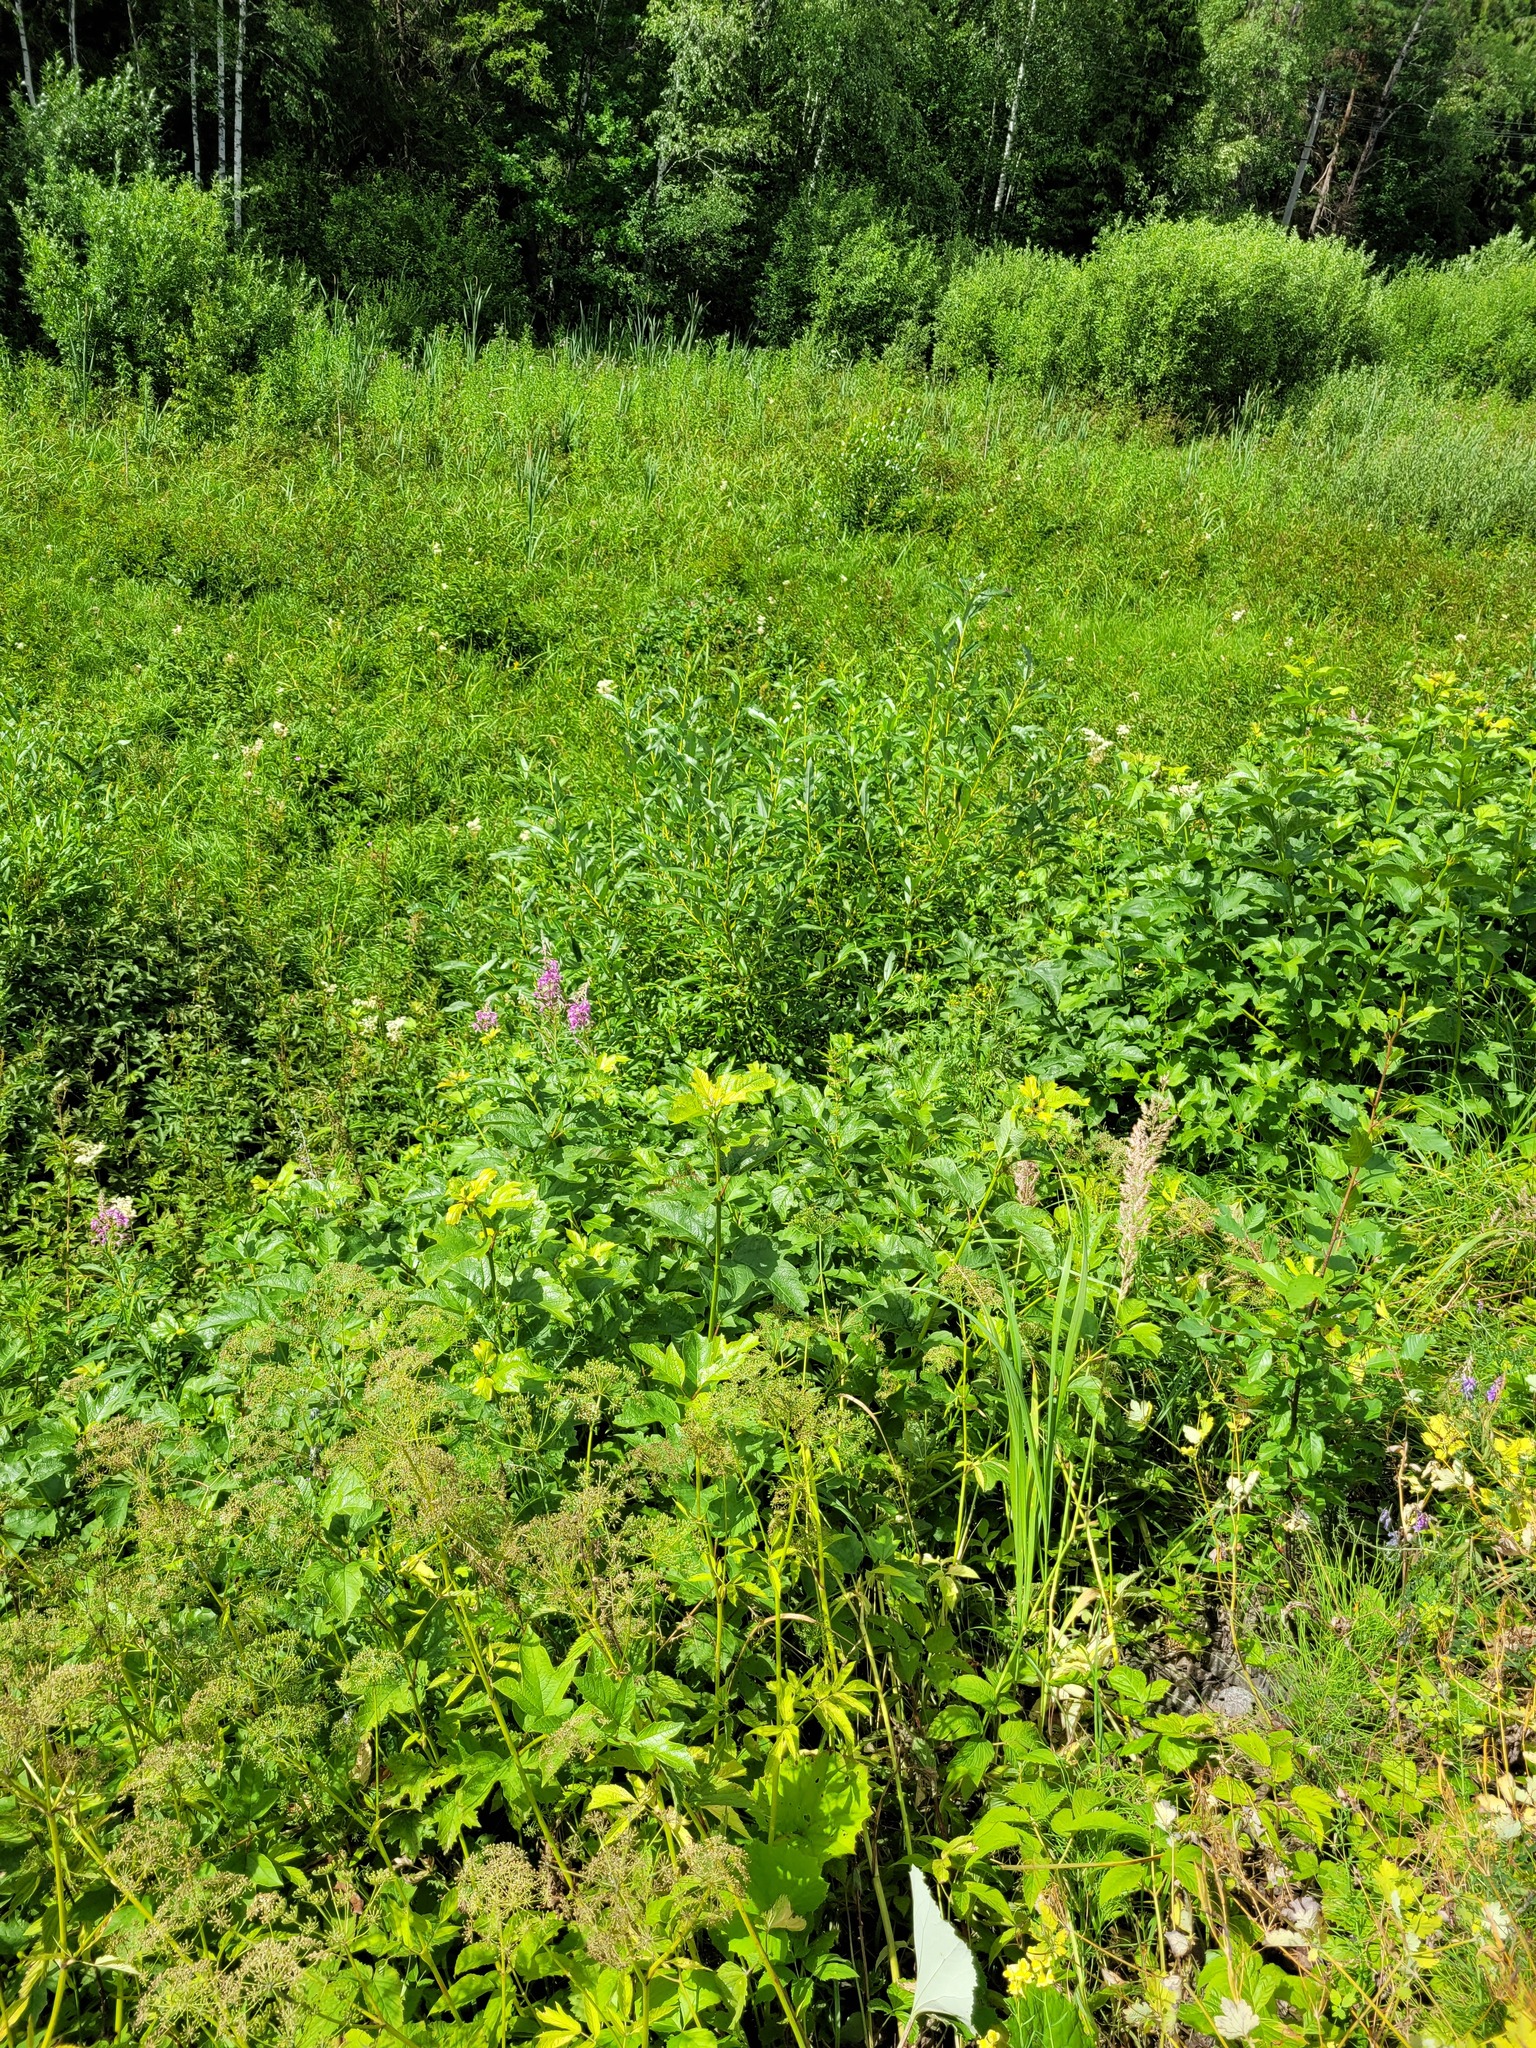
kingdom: Plantae
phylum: Tracheophyta
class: Magnoliopsida
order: Dipsacales
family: Viburnaceae
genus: Viburnum
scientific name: Viburnum opulus
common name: Guelder-rose
